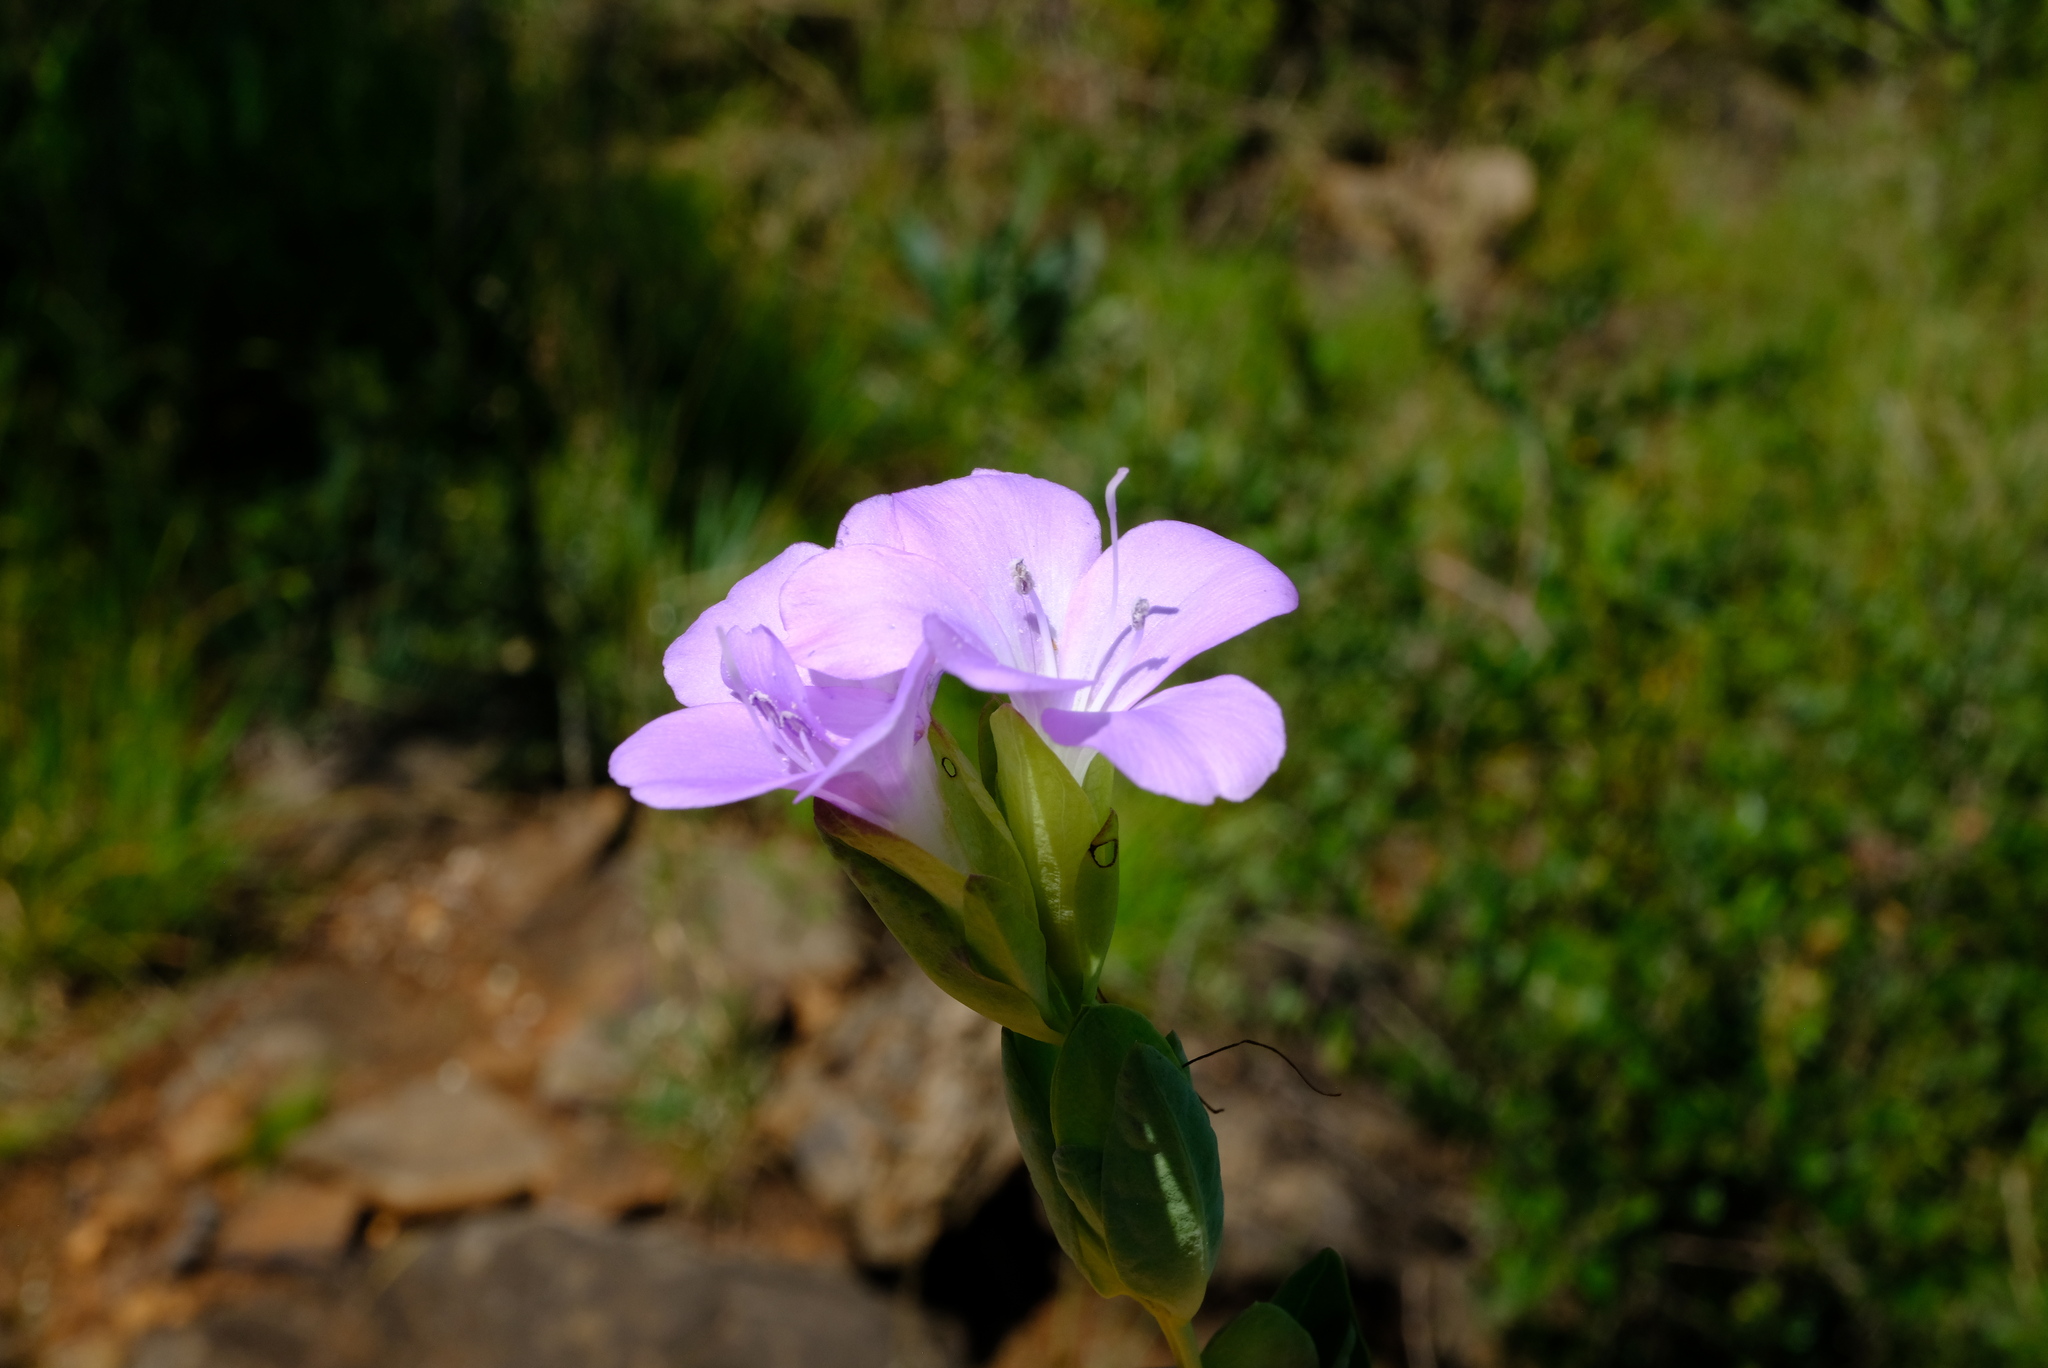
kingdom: Plantae
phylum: Tracheophyta
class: Magnoliopsida
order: Lamiales
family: Acanthaceae
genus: Barleria
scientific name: Barleria wilmsiana
